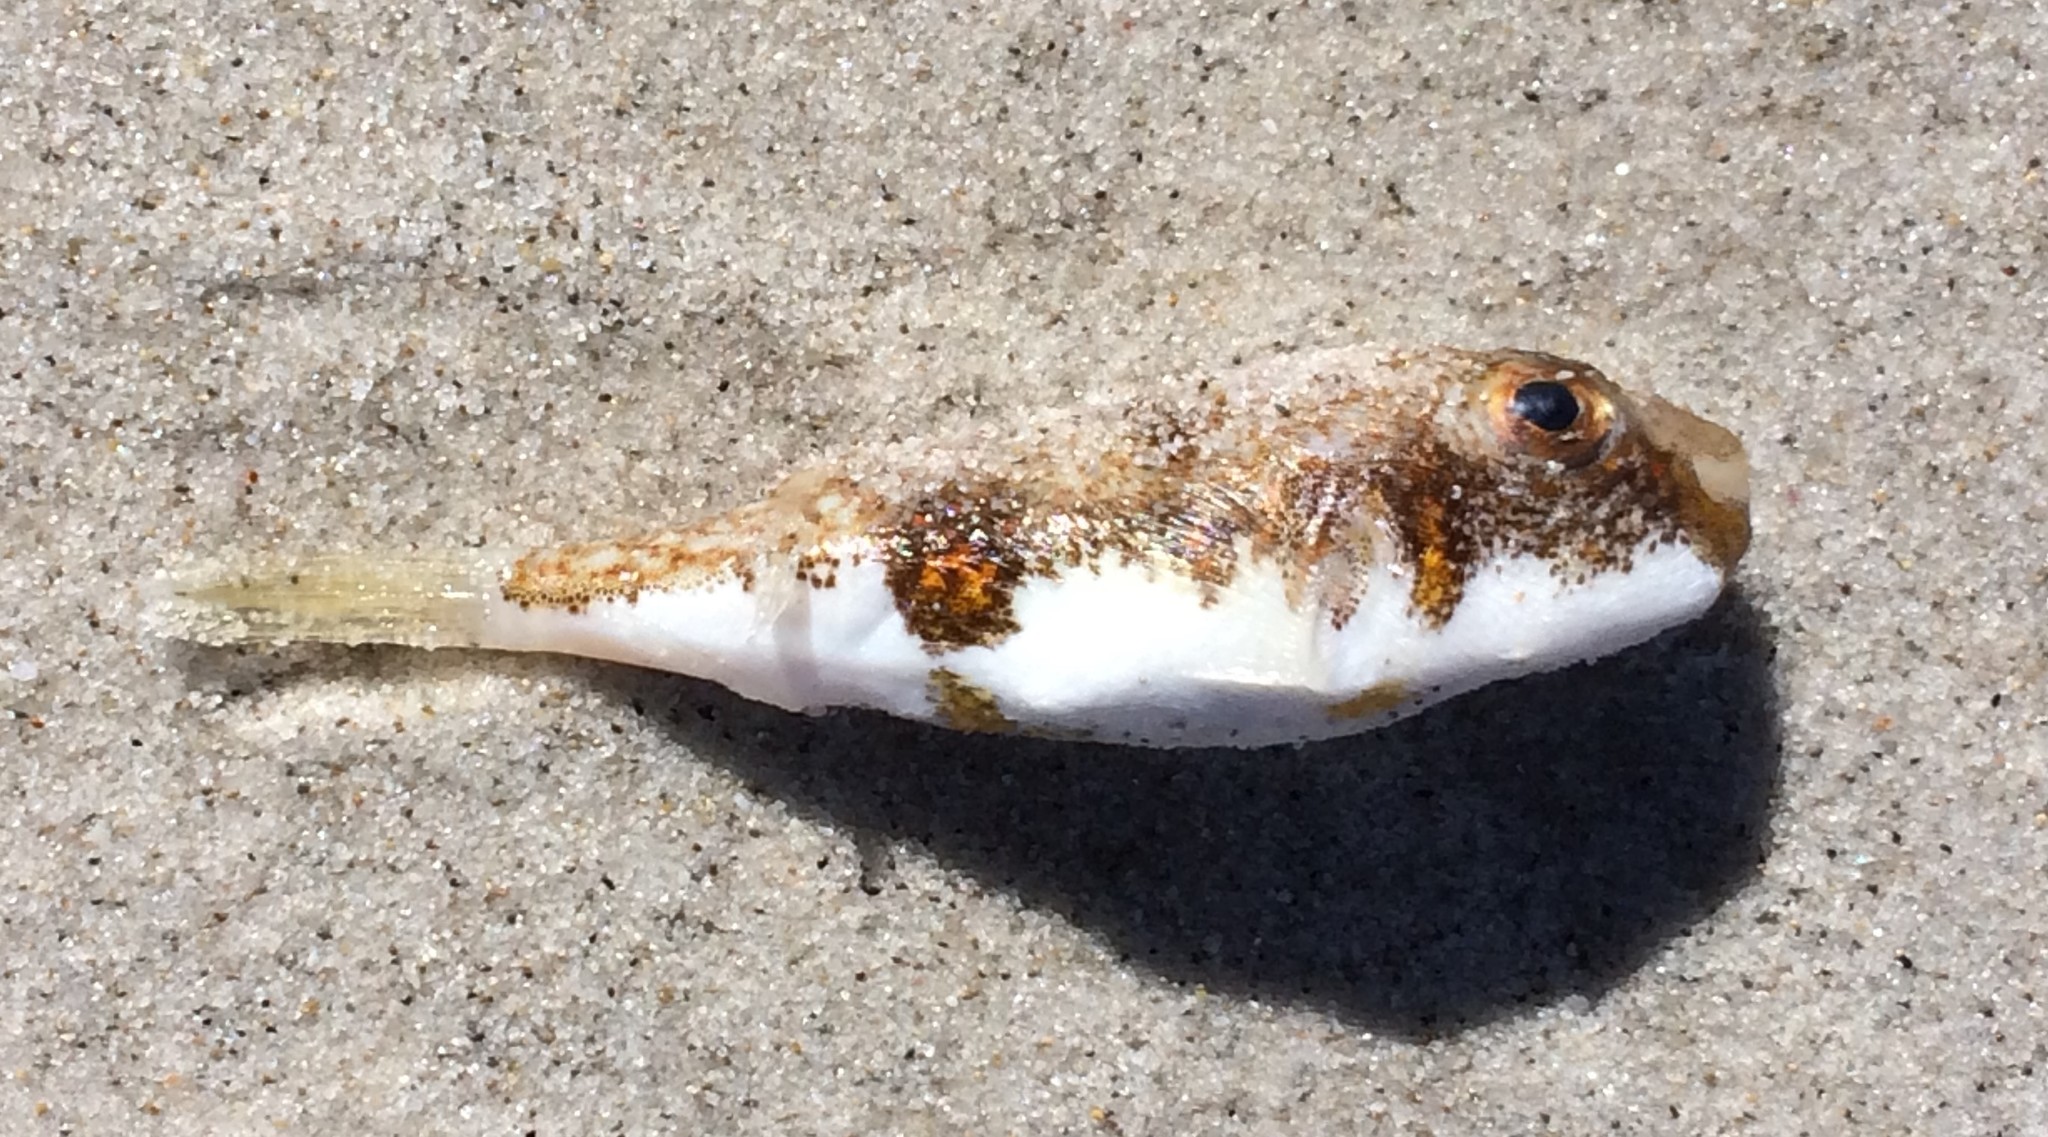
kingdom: Animalia
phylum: Chordata
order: Tetraodontiformes
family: Tetraodontidae
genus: Polyspina
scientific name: Polyspina piosae
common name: Orange-barred pufferfish
